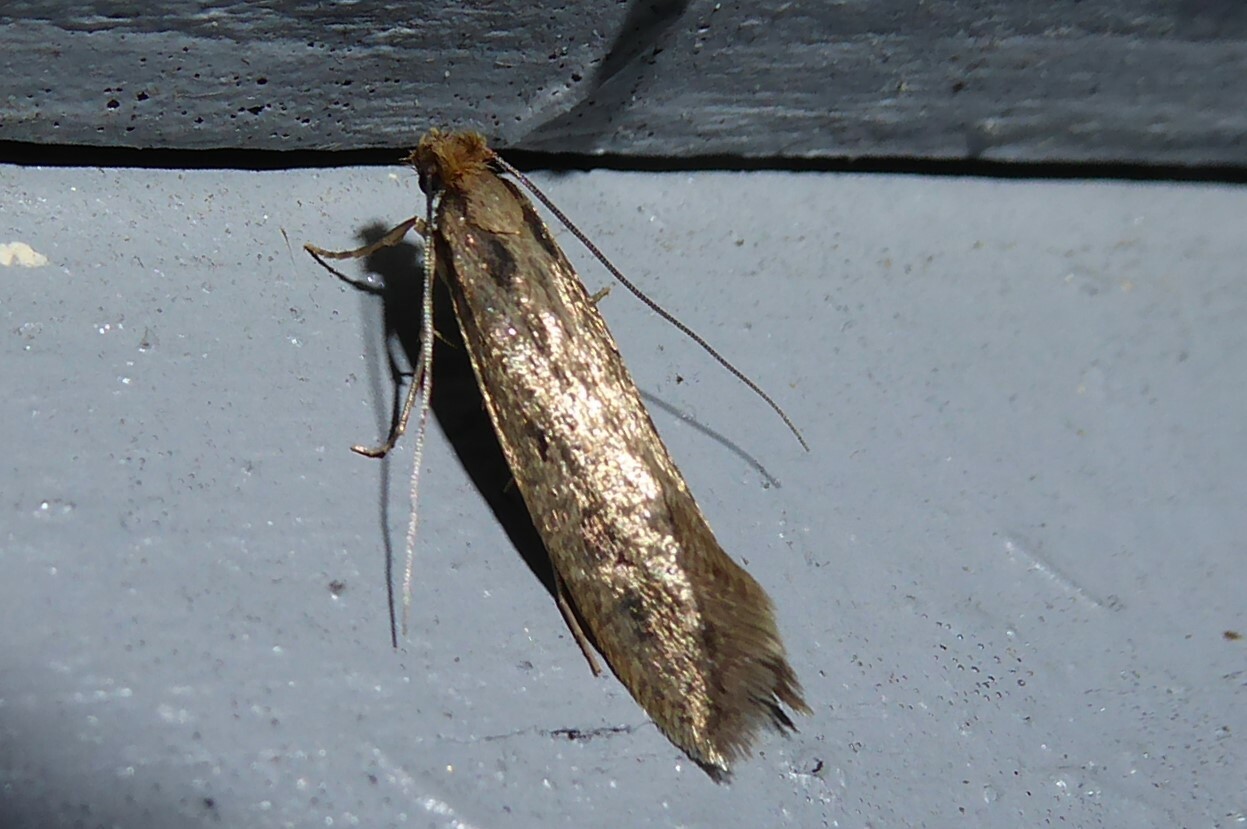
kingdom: Animalia
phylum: Arthropoda
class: Insecta
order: Lepidoptera
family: Tineidae
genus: Tinea
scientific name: Tinea pallescentella
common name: Large pale clothes moth
